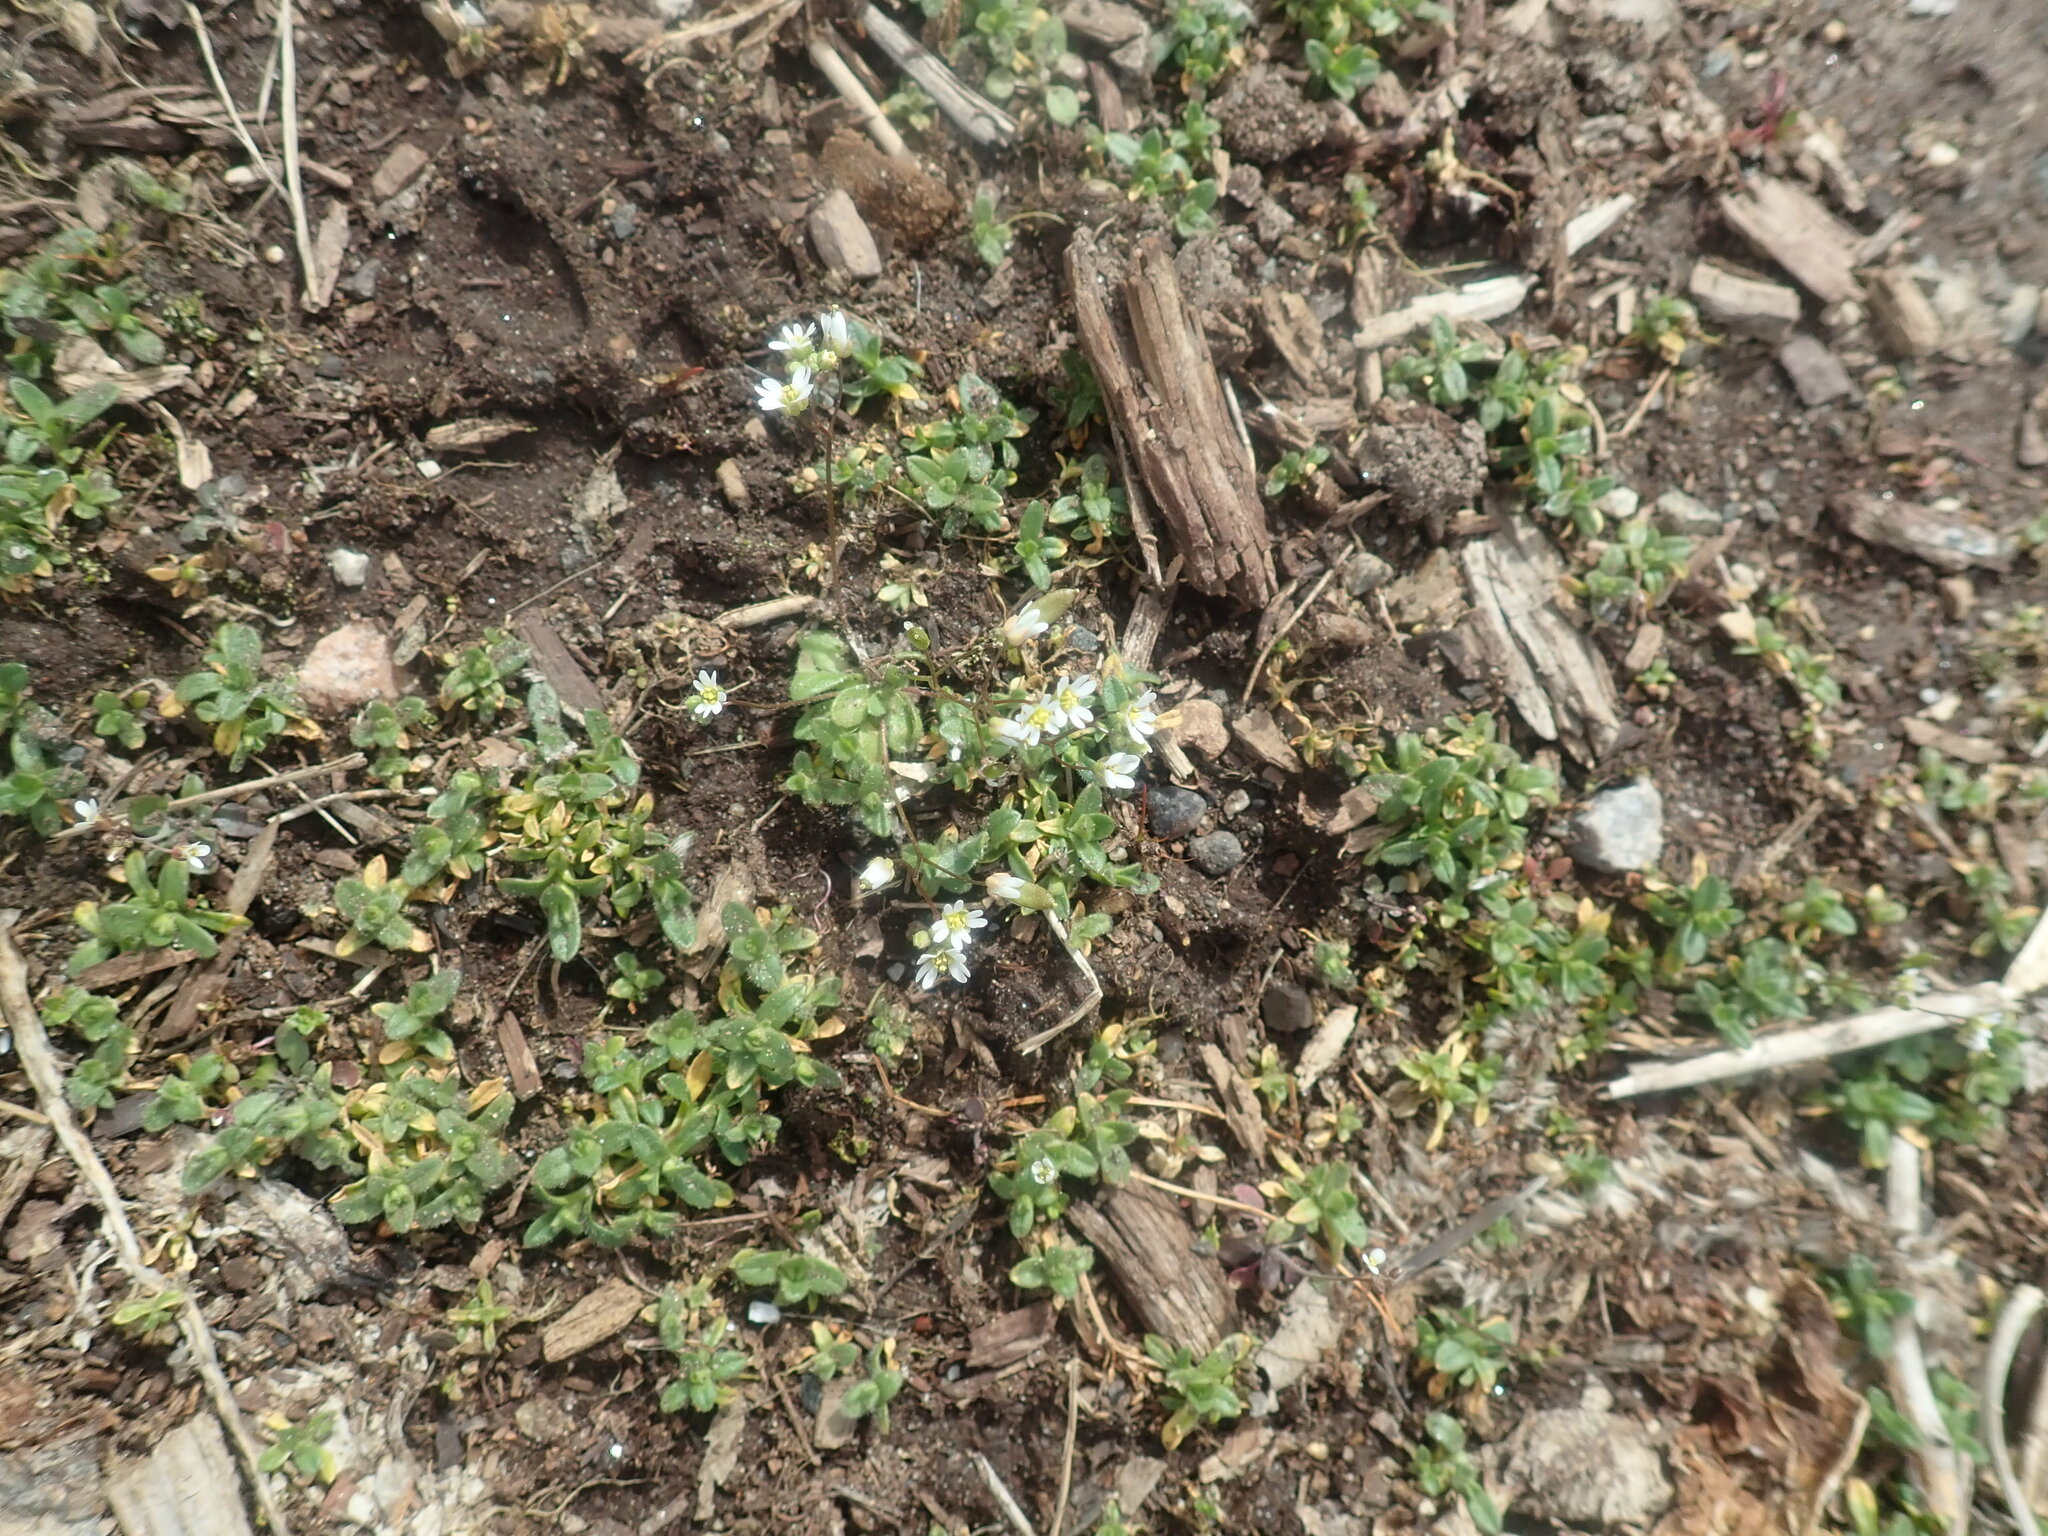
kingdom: Plantae
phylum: Tracheophyta
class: Magnoliopsida
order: Brassicales
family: Brassicaceae
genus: Draba
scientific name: Draba verna
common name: Spring draba
